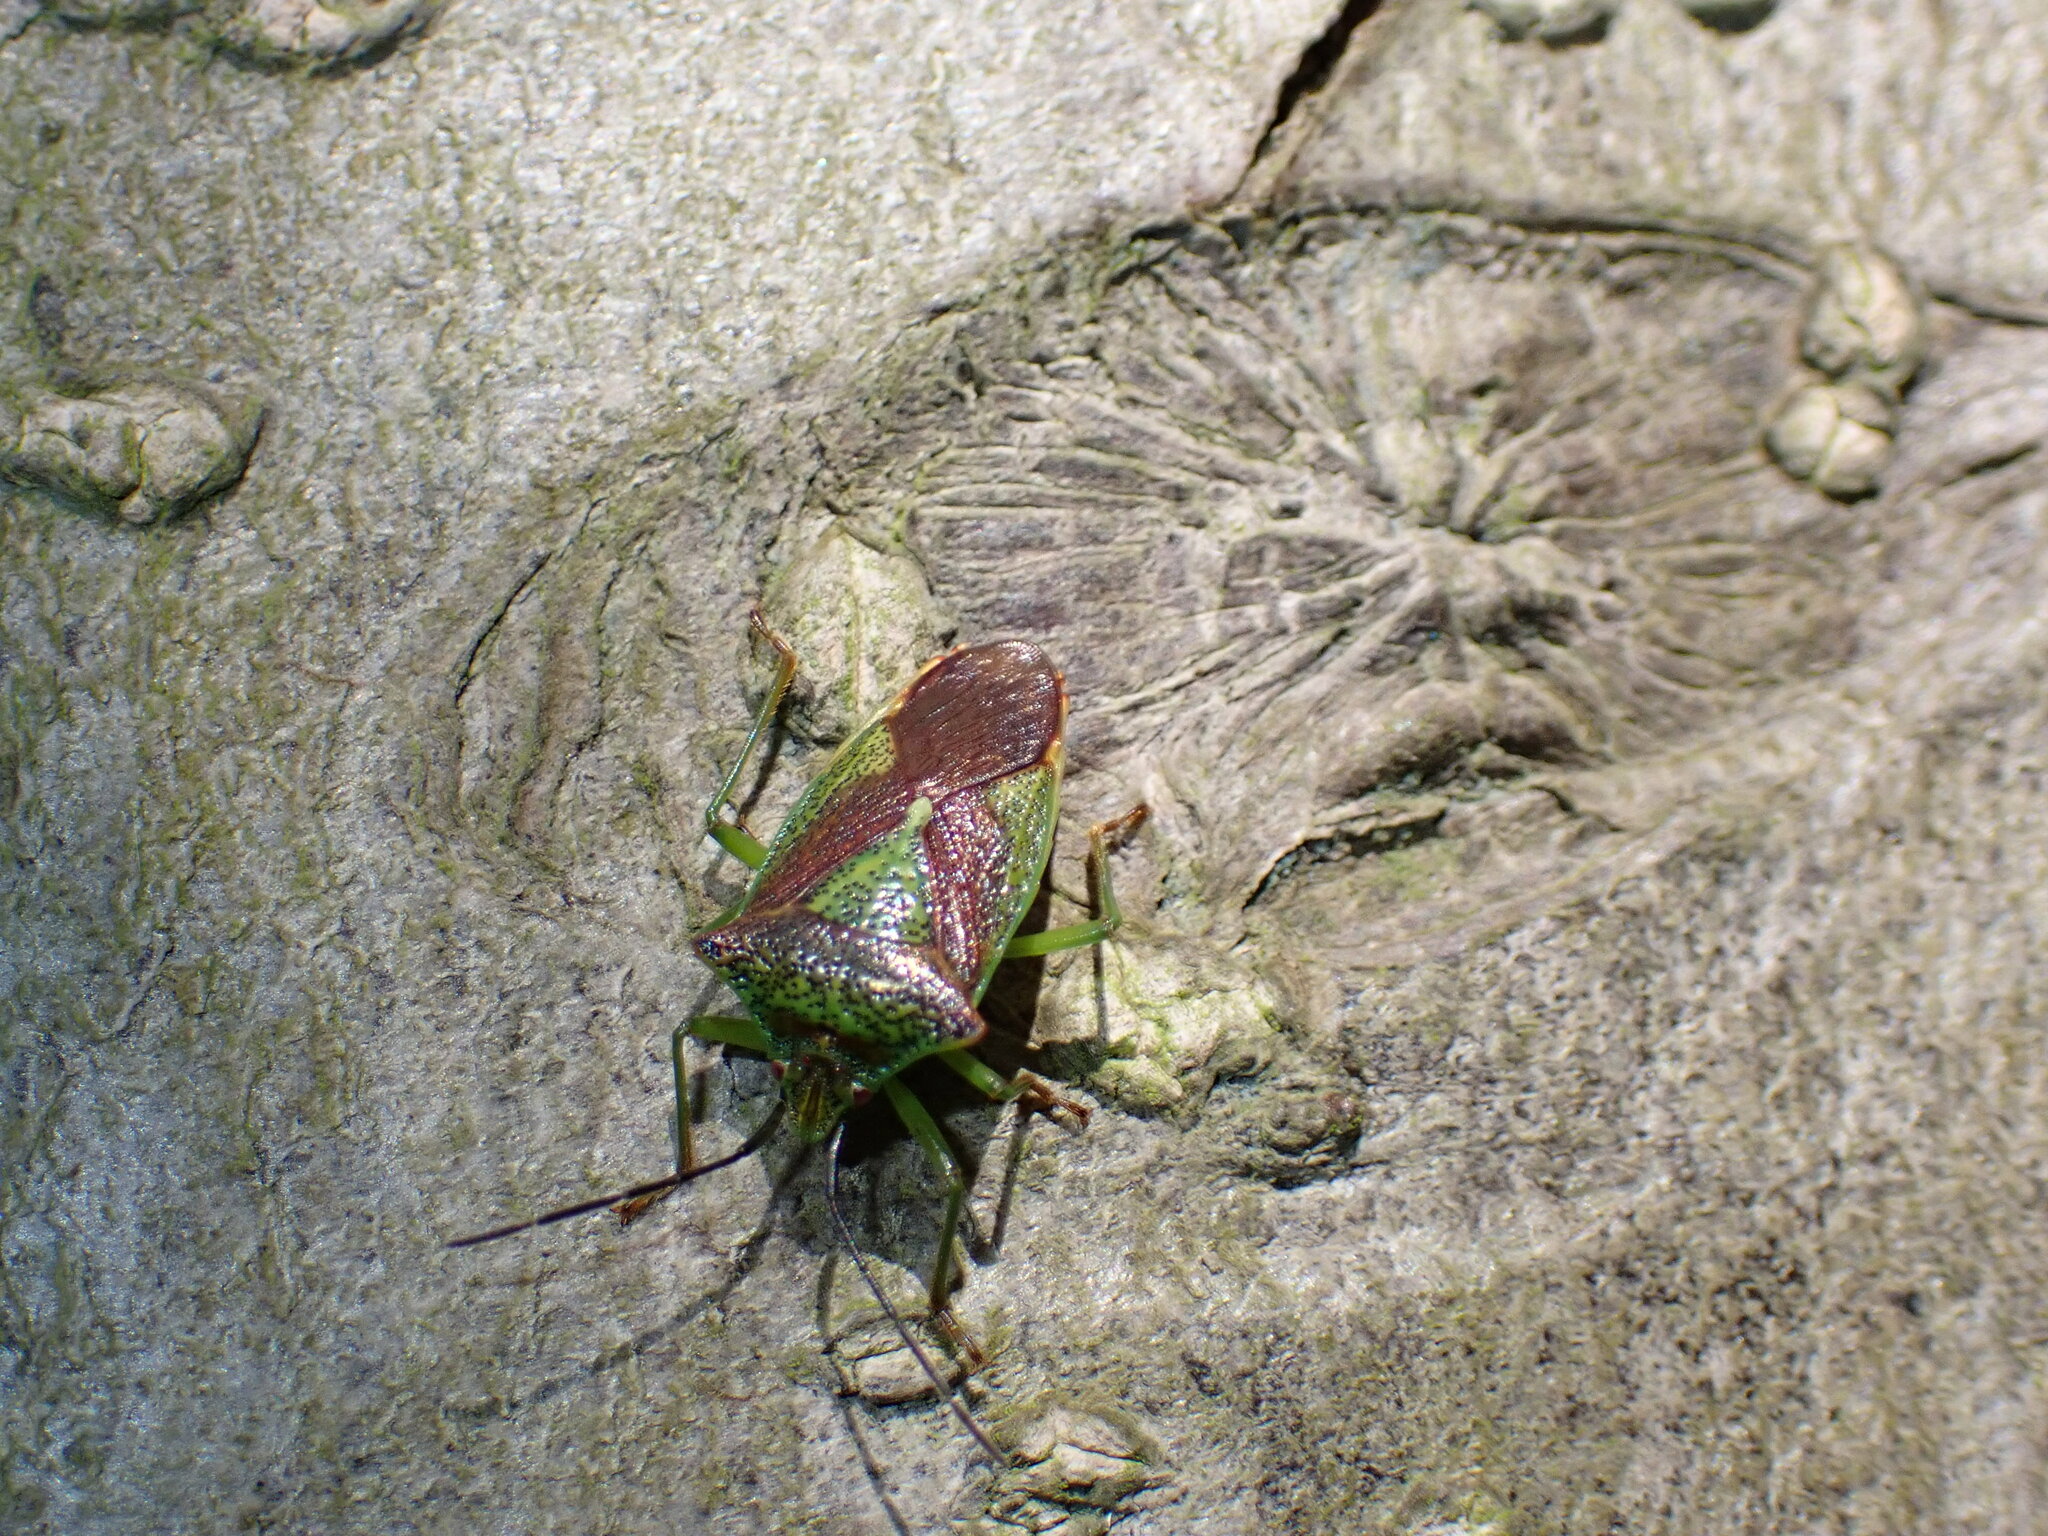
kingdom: Animalia
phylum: Arthropoda
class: Insecta
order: Hemiptera
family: Acanthosomatidae
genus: Acanthosoma
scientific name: Acanthosoma haemorrhoidale
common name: Hawthorn shieldbug
